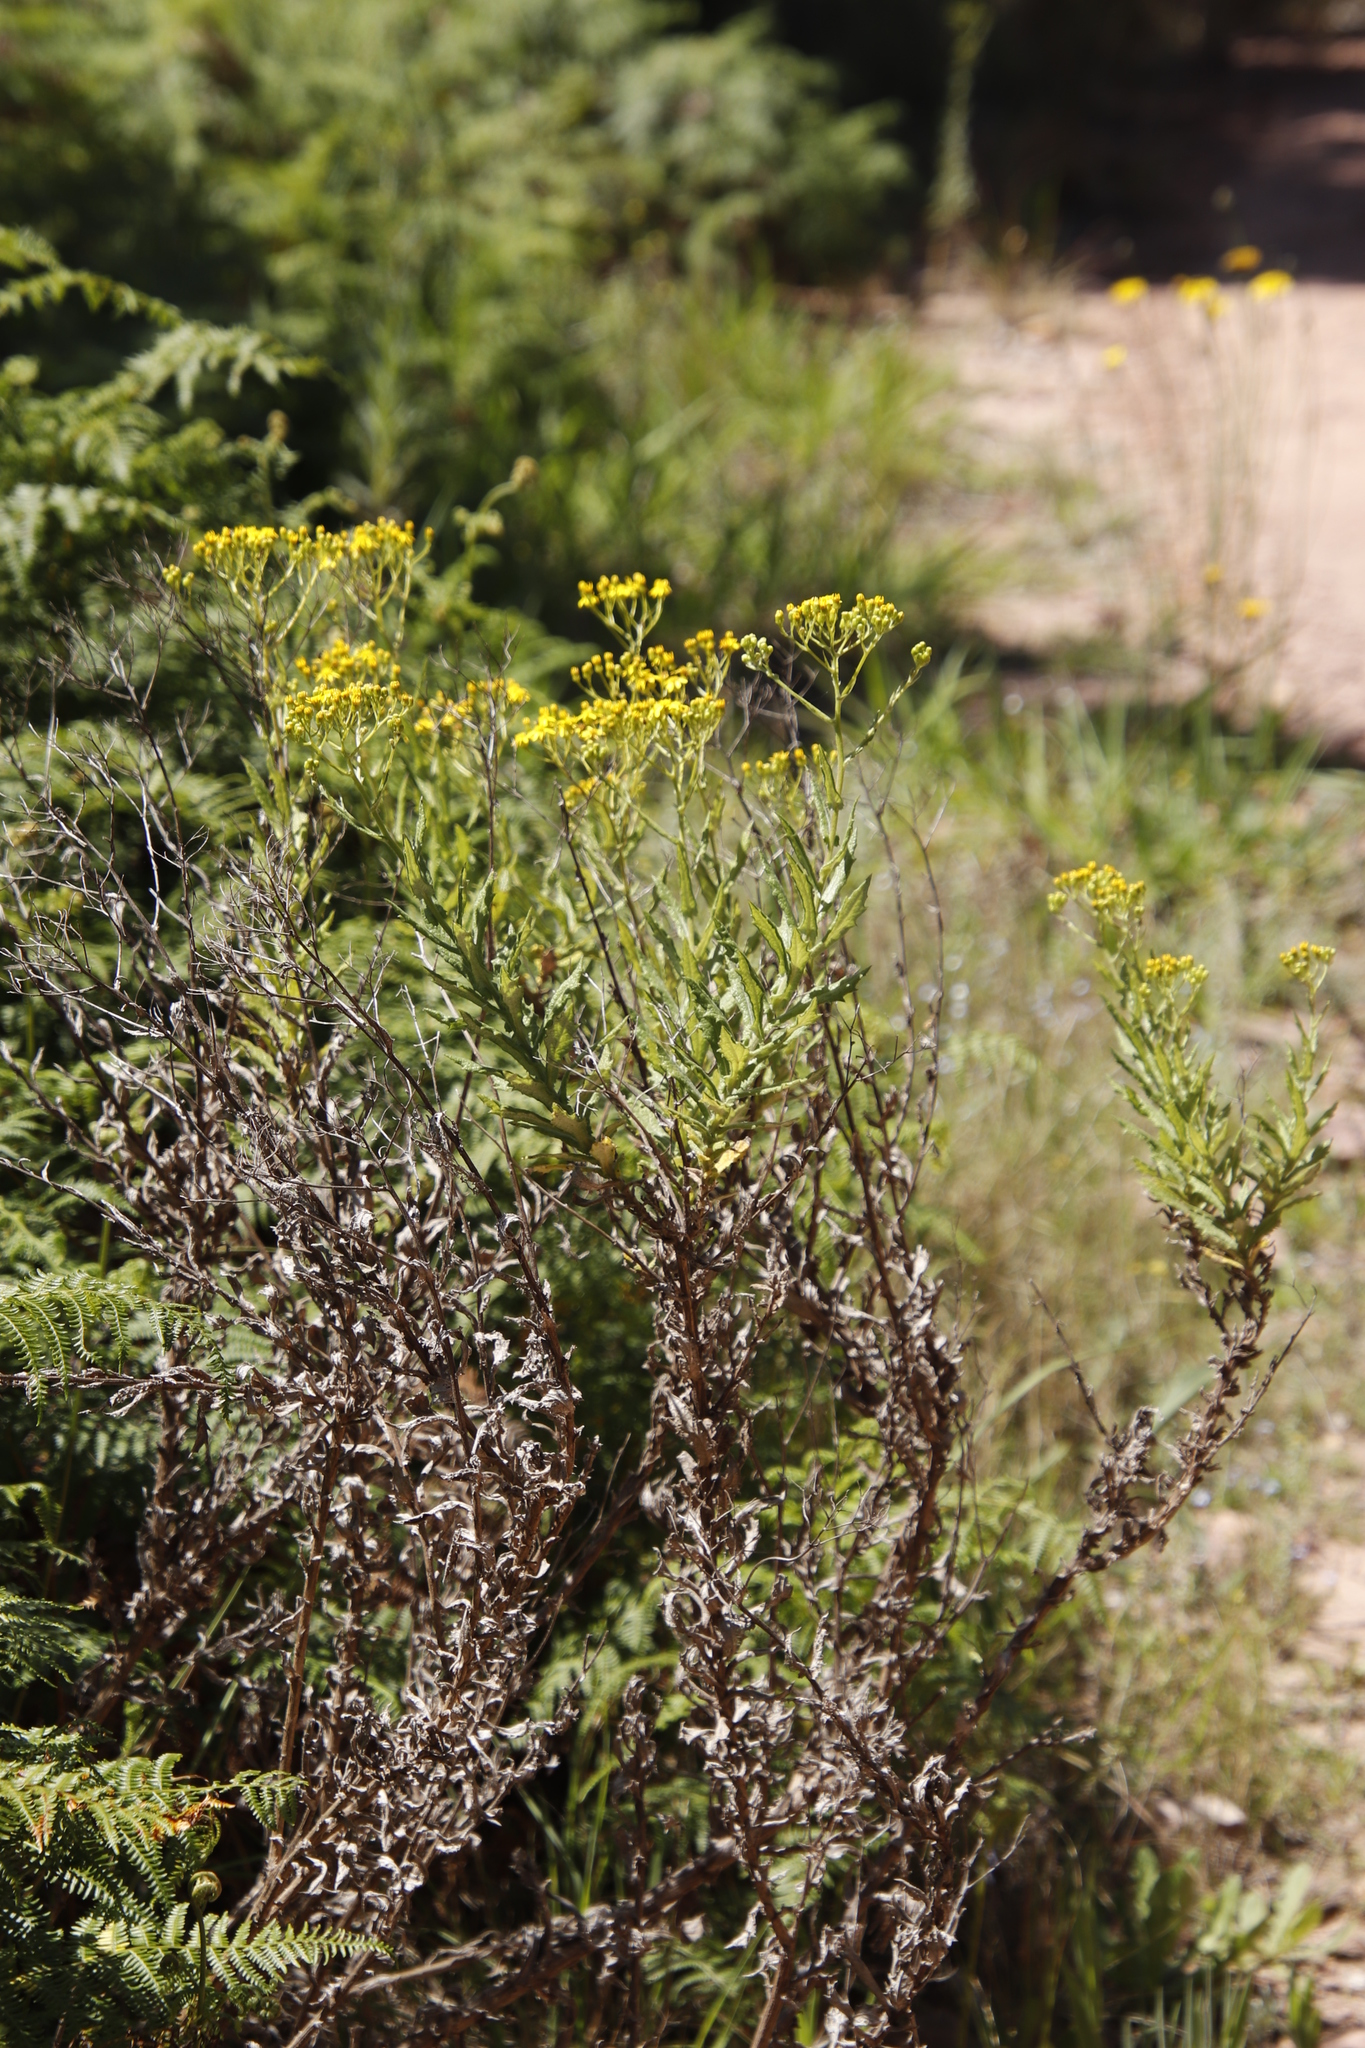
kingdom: Plantae
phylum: Tracheophyta
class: Magnoliopsida
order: Asterales
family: Asteraceae
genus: Senecio
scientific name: Senecio pterophorus
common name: Shoddy ragwort
